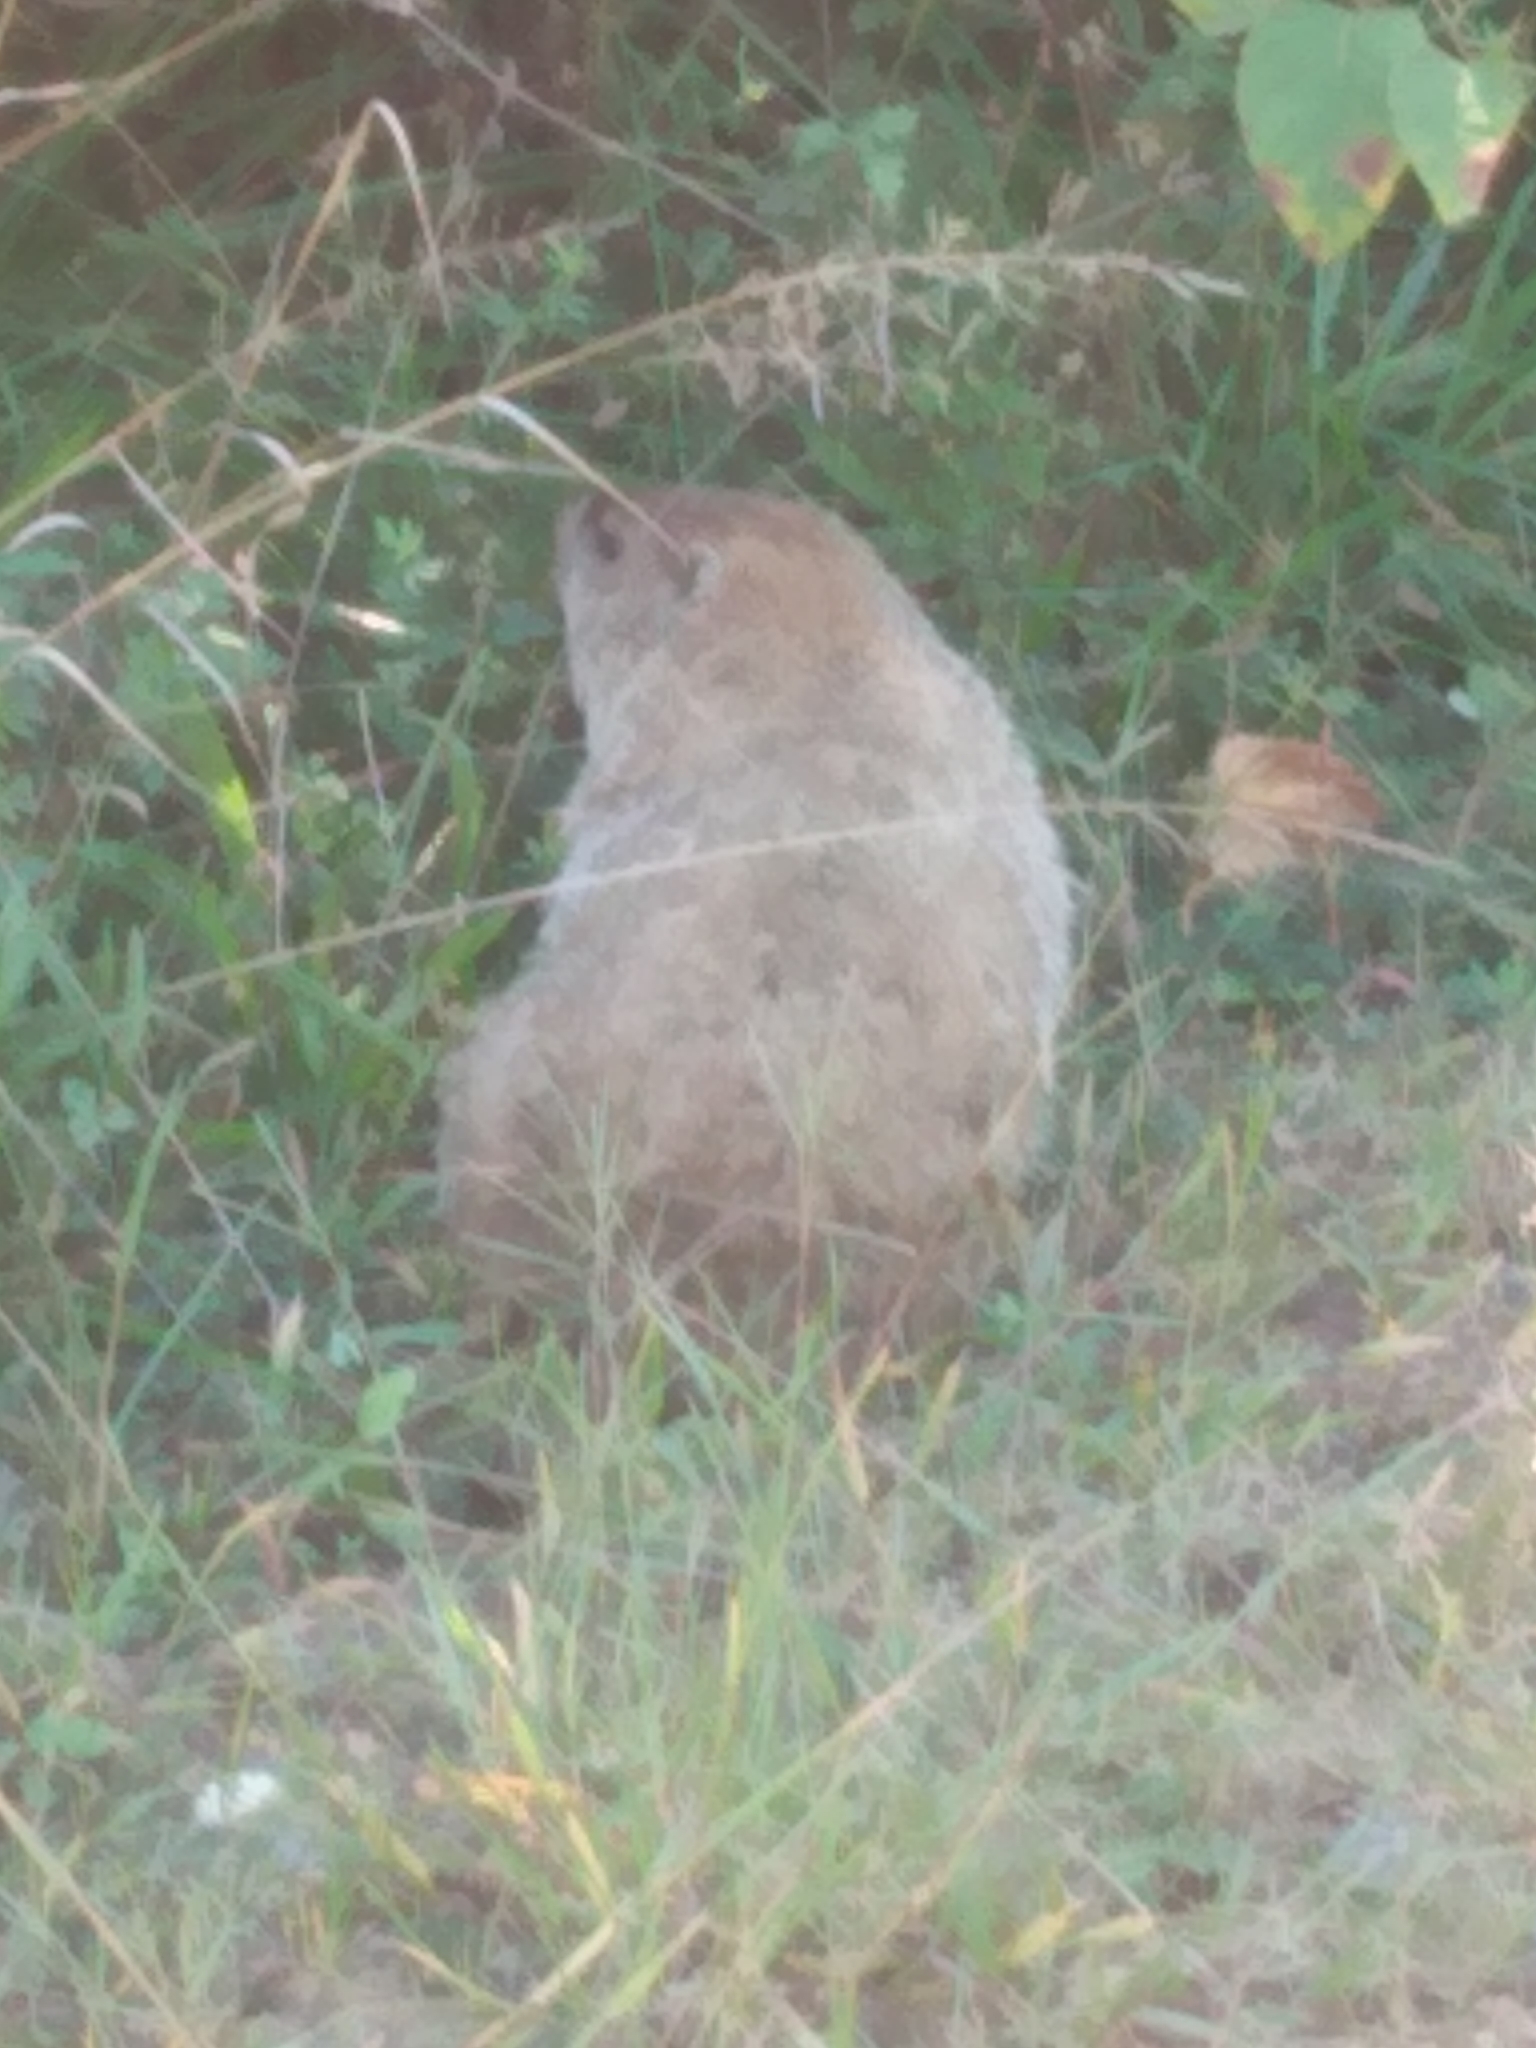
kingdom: Animalia
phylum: Chordata
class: Mammalia
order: Rodentia
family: Sciuridae
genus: Marmota
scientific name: Marmota monax
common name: Groundhog
